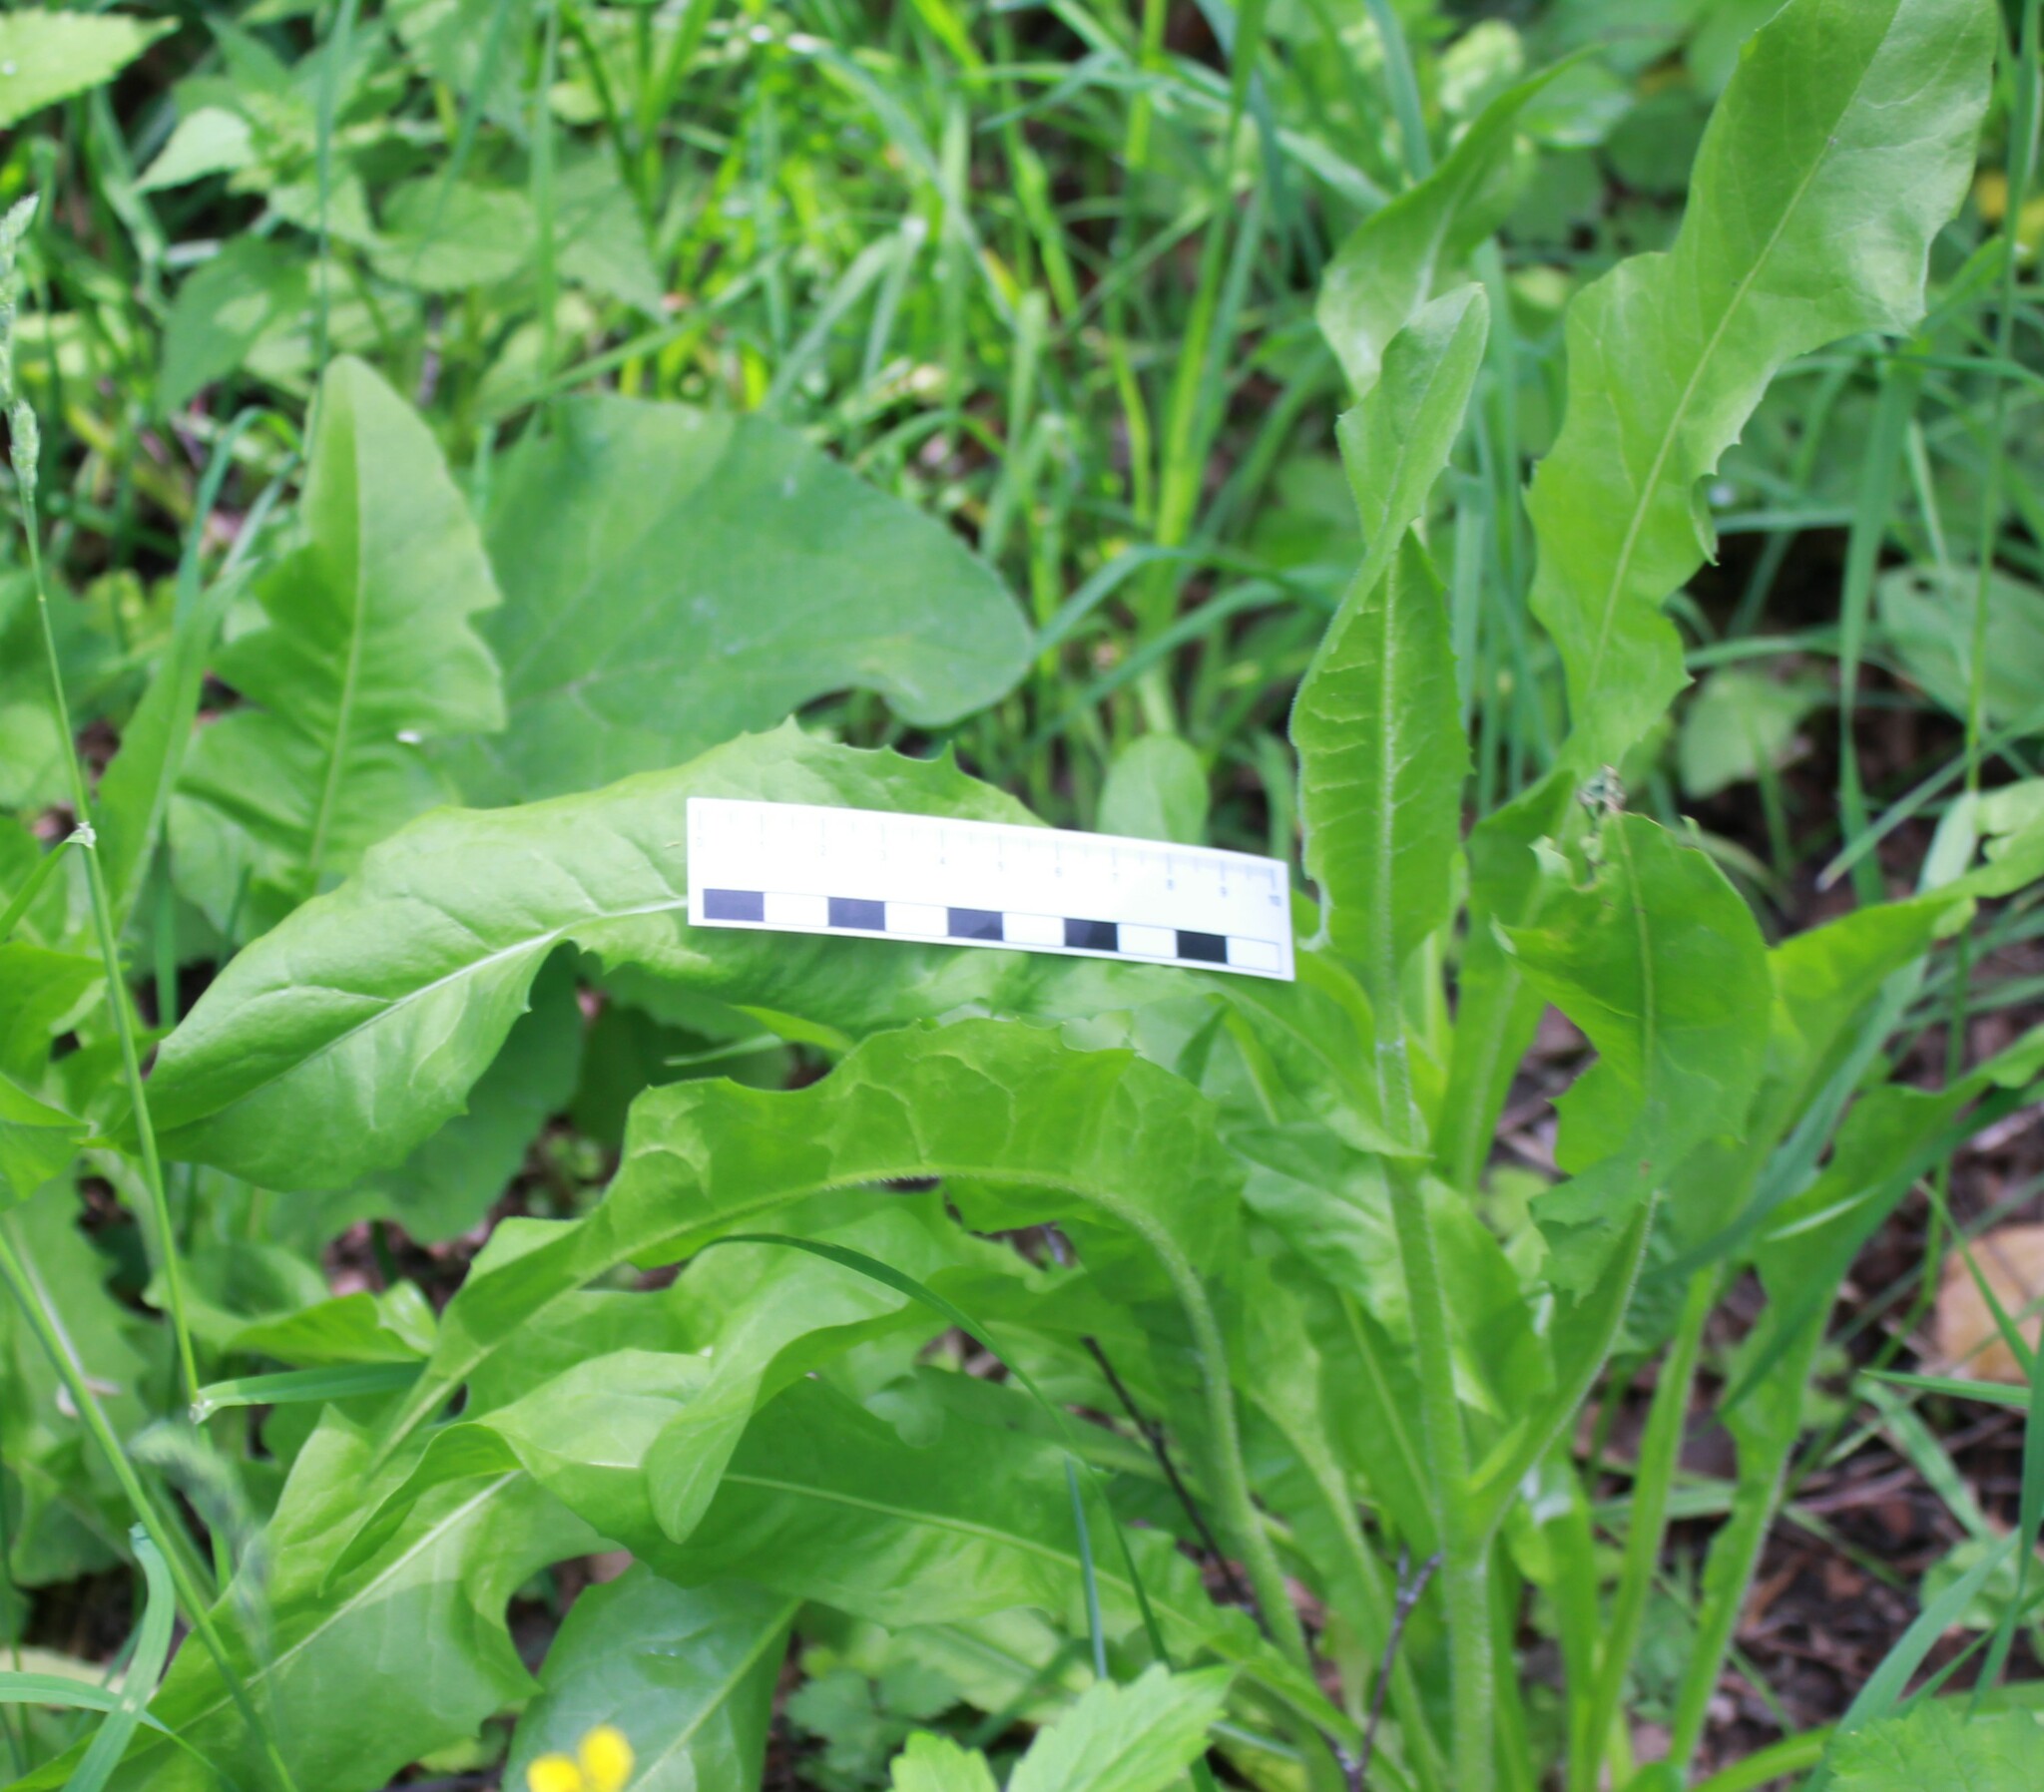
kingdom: Plantae
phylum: Tracheophyta
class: Magnoliopsida
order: Asterales
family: Asteraceae
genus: Cichorium
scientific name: Cichorium intybus
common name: Chicory
